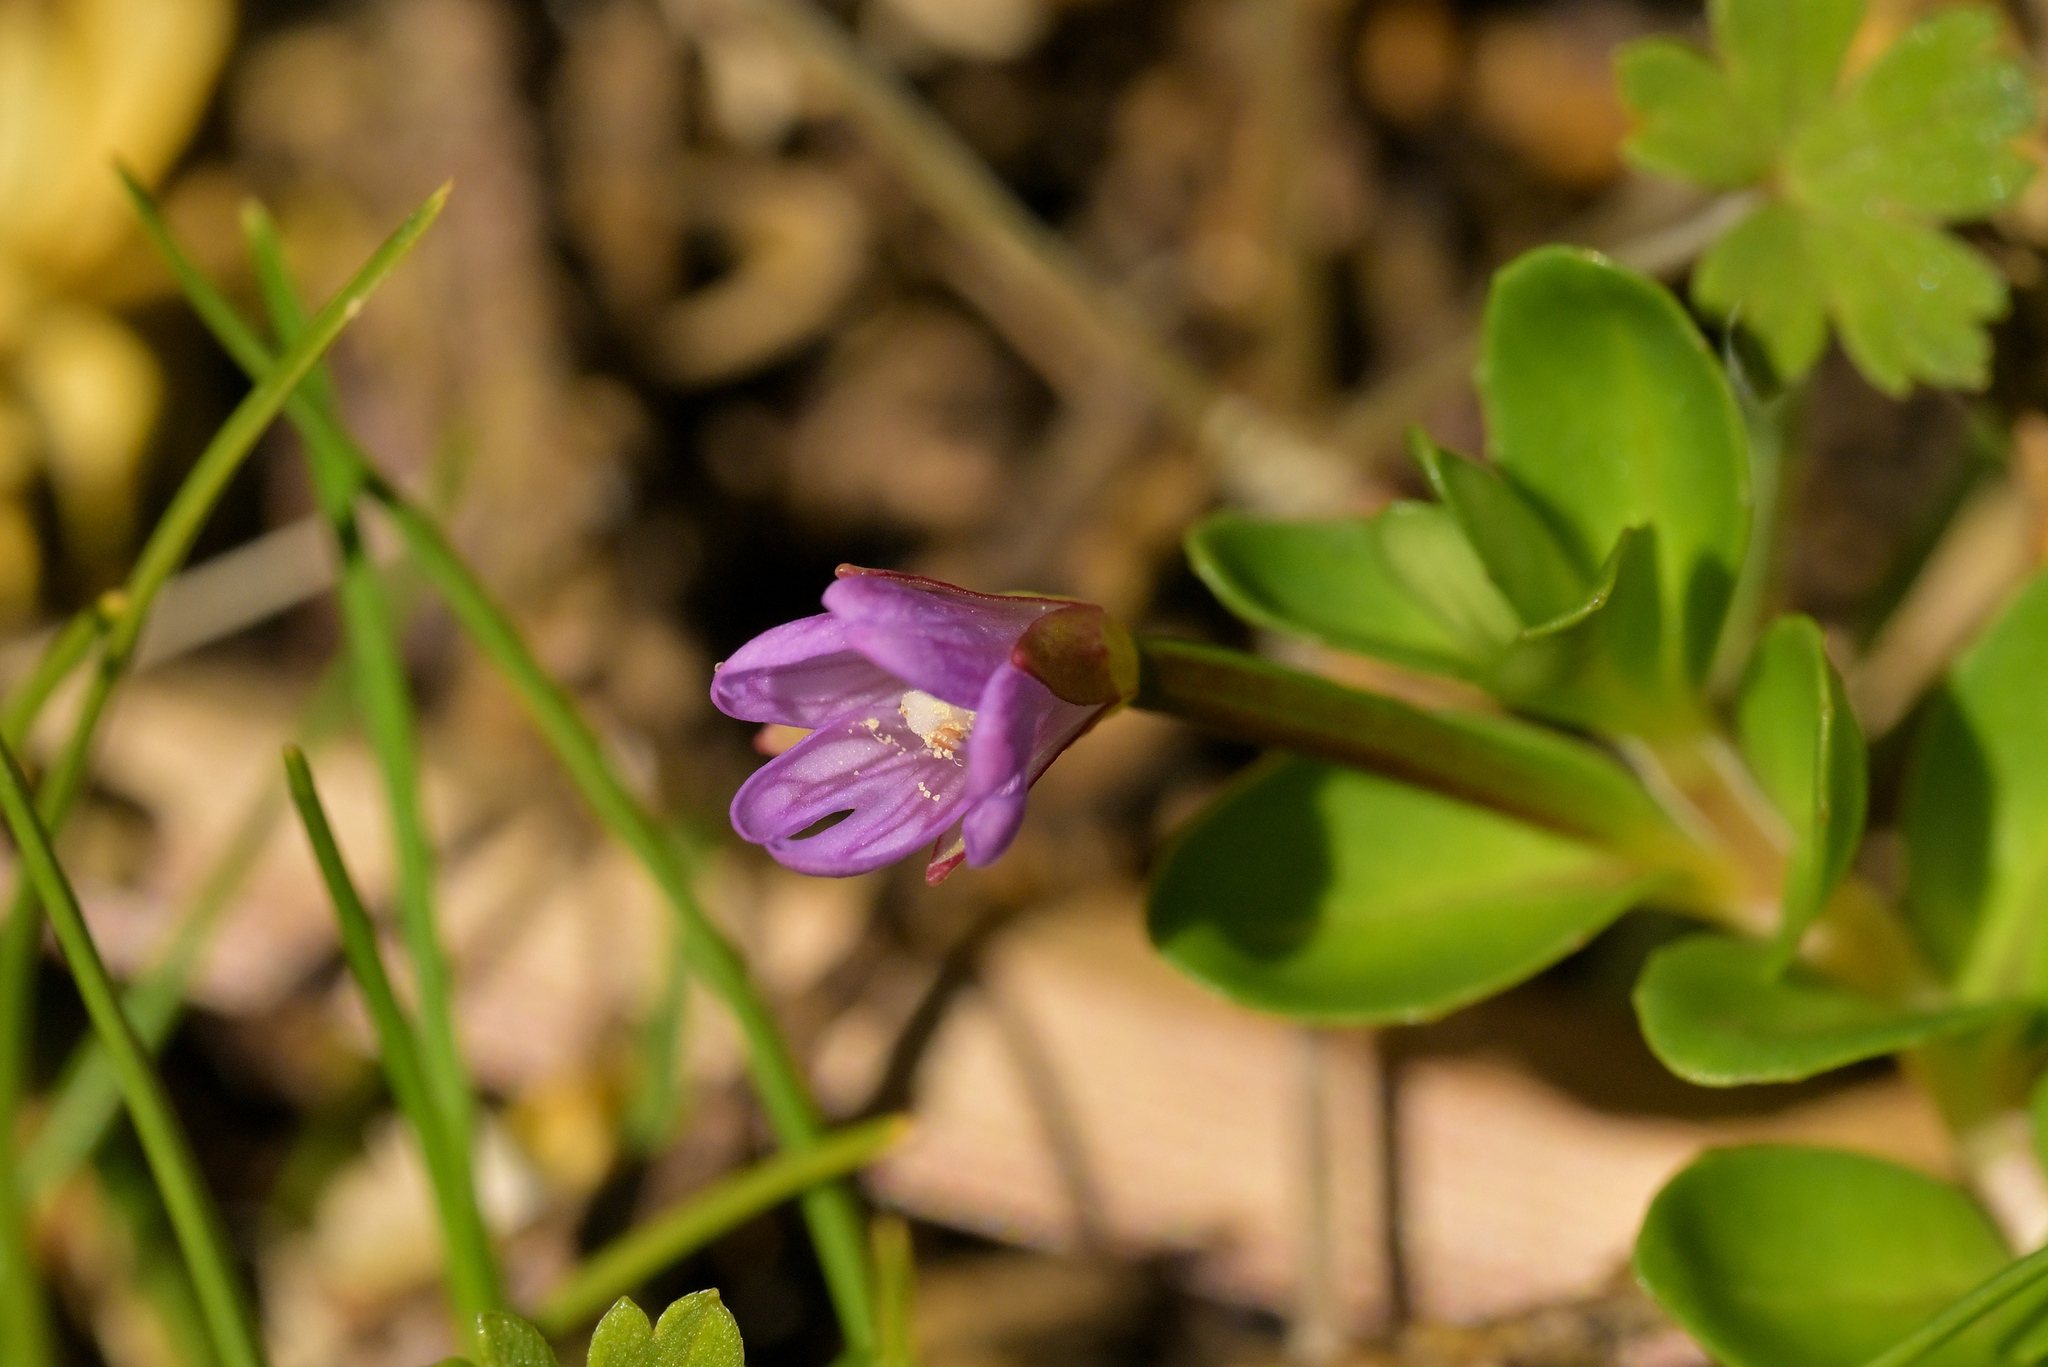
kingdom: Plantae
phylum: Tracheophyta
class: Magnoliopsida
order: Myrtales
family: Onagraceae
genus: Epilobium
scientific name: Epilobium confertifolium
